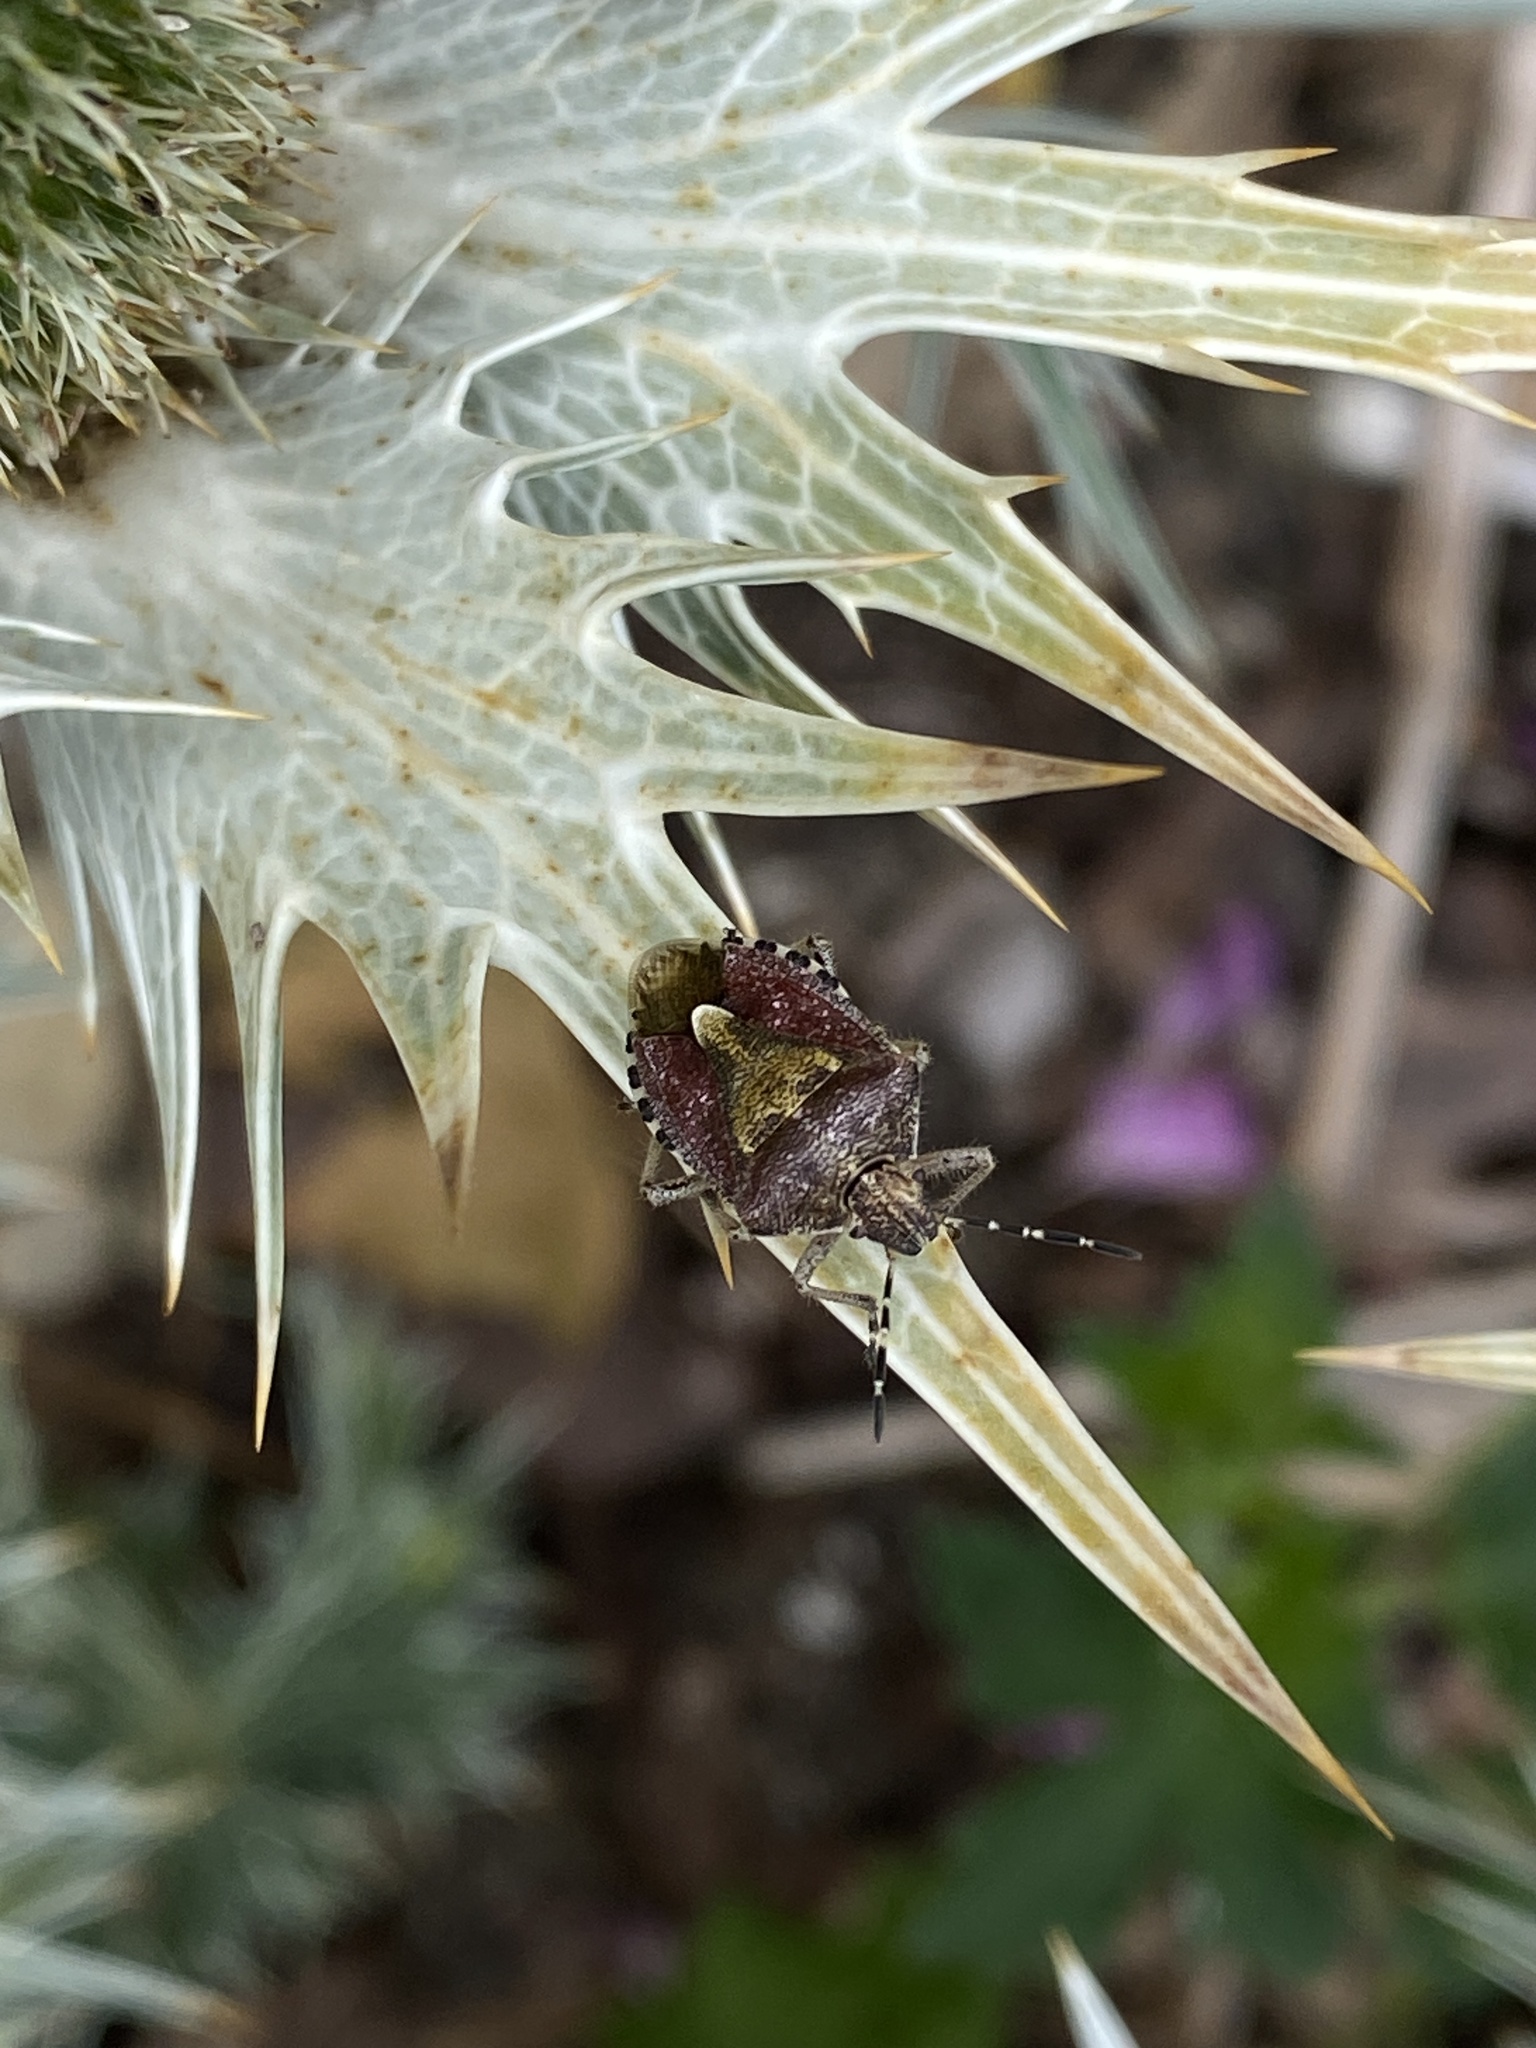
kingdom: Animalia
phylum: Arthropoda
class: Insecta
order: Hemiptera
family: Pentatomidae
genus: Dolycoris
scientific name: Dolycoris baccarum
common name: Sloe bug
